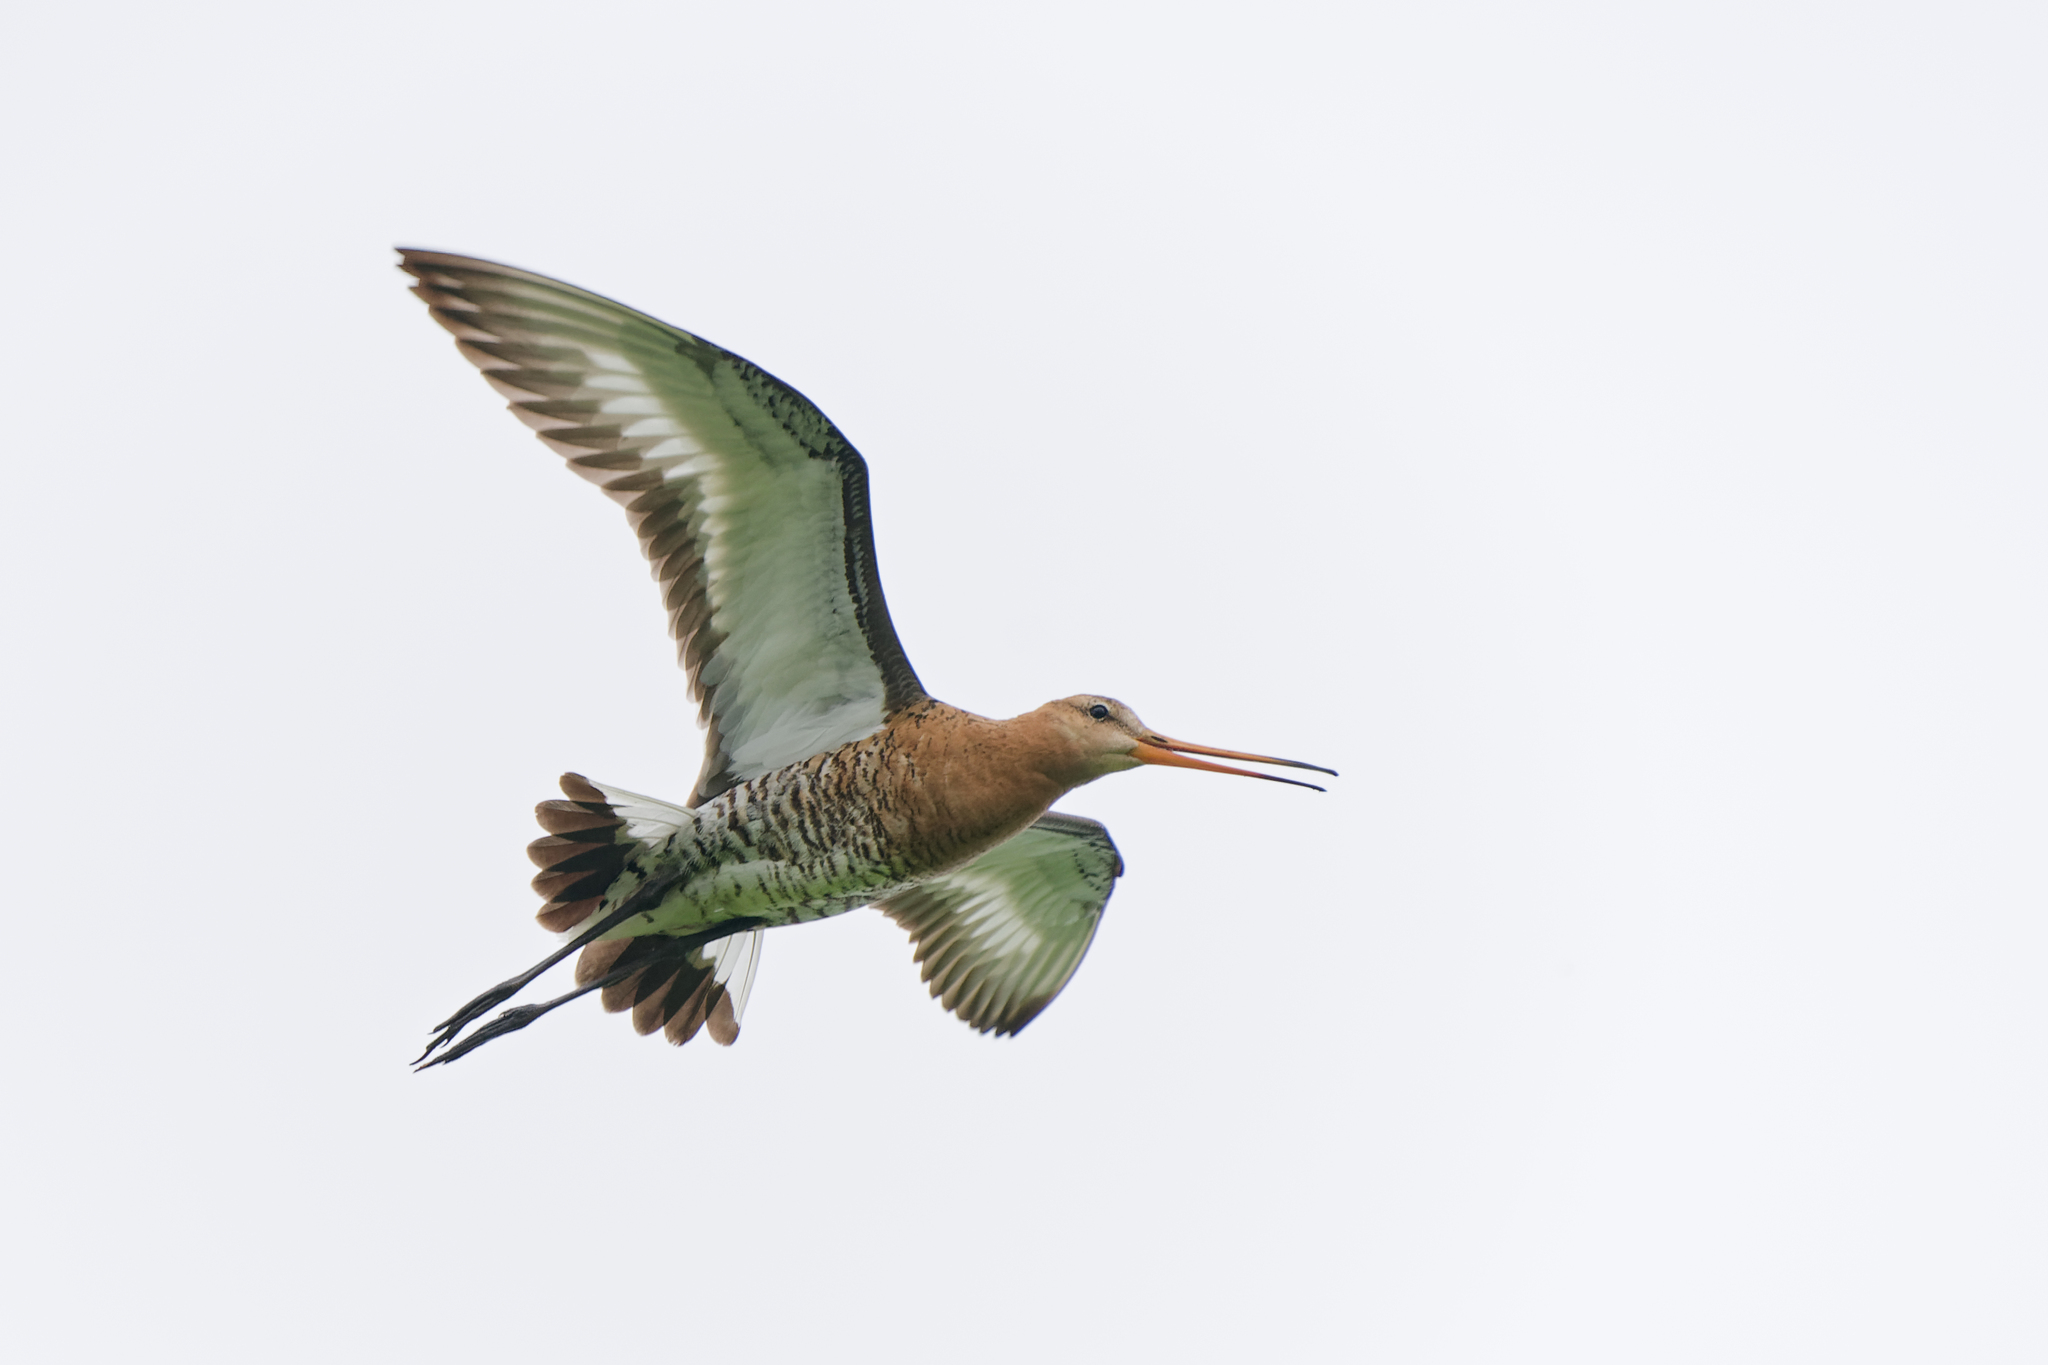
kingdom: Animalia
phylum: Chordata
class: Aves
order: Charadriiformes
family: Scolopacidae
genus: Limosa
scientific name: Limosa limosa
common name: Black-tailed godwit
